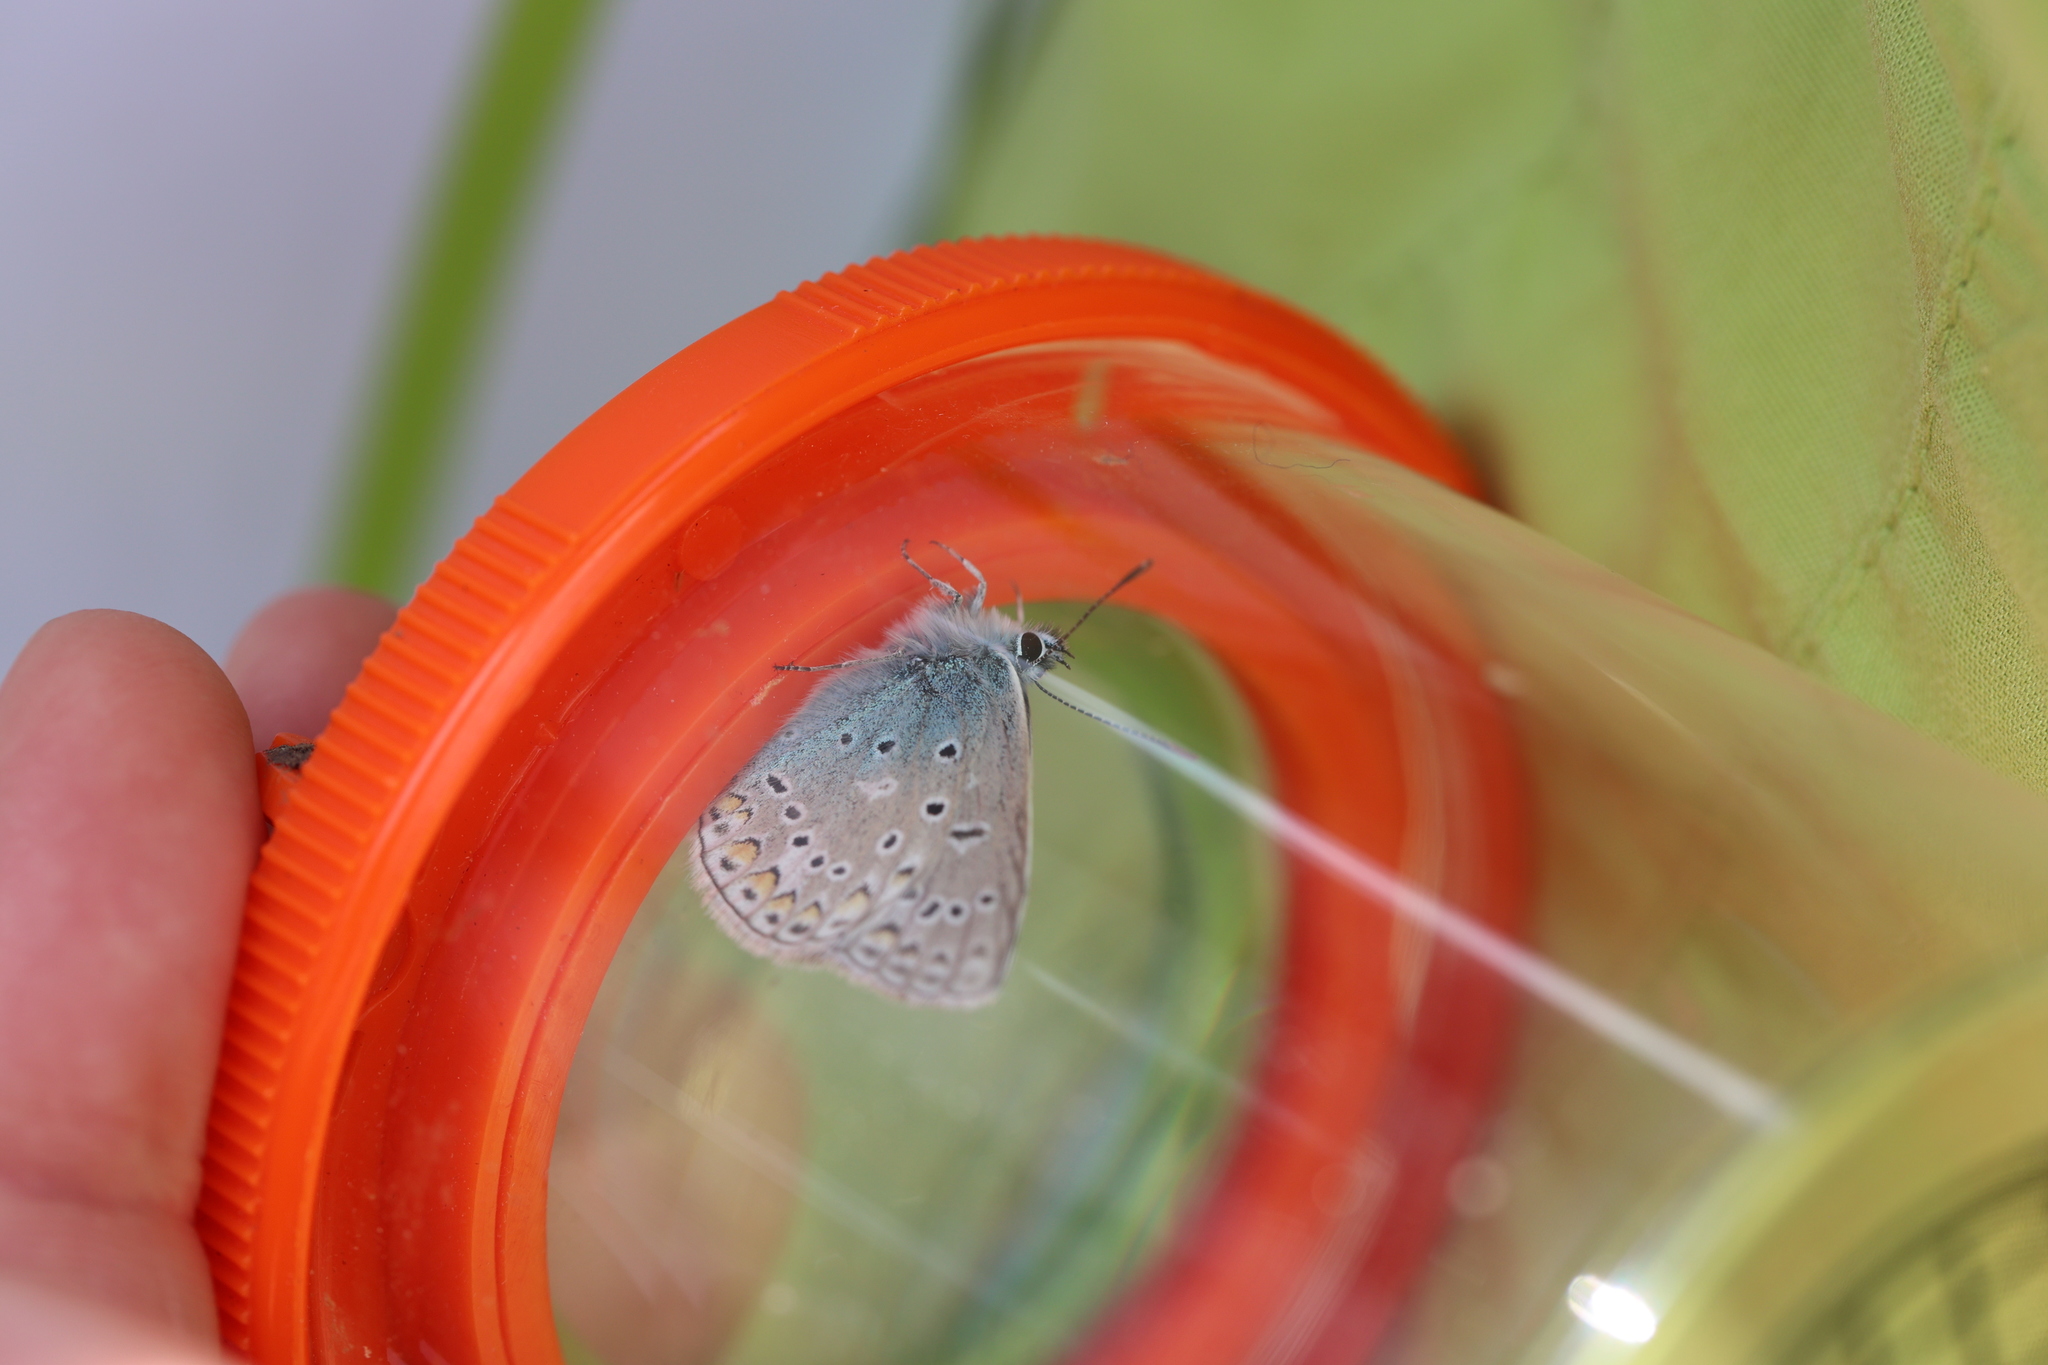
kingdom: Animalia
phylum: Arthropoda
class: Insecta
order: Lepidoptera
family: Lycaenidae
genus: Polyommatus
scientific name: Polyommatus icarus
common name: Common blue
